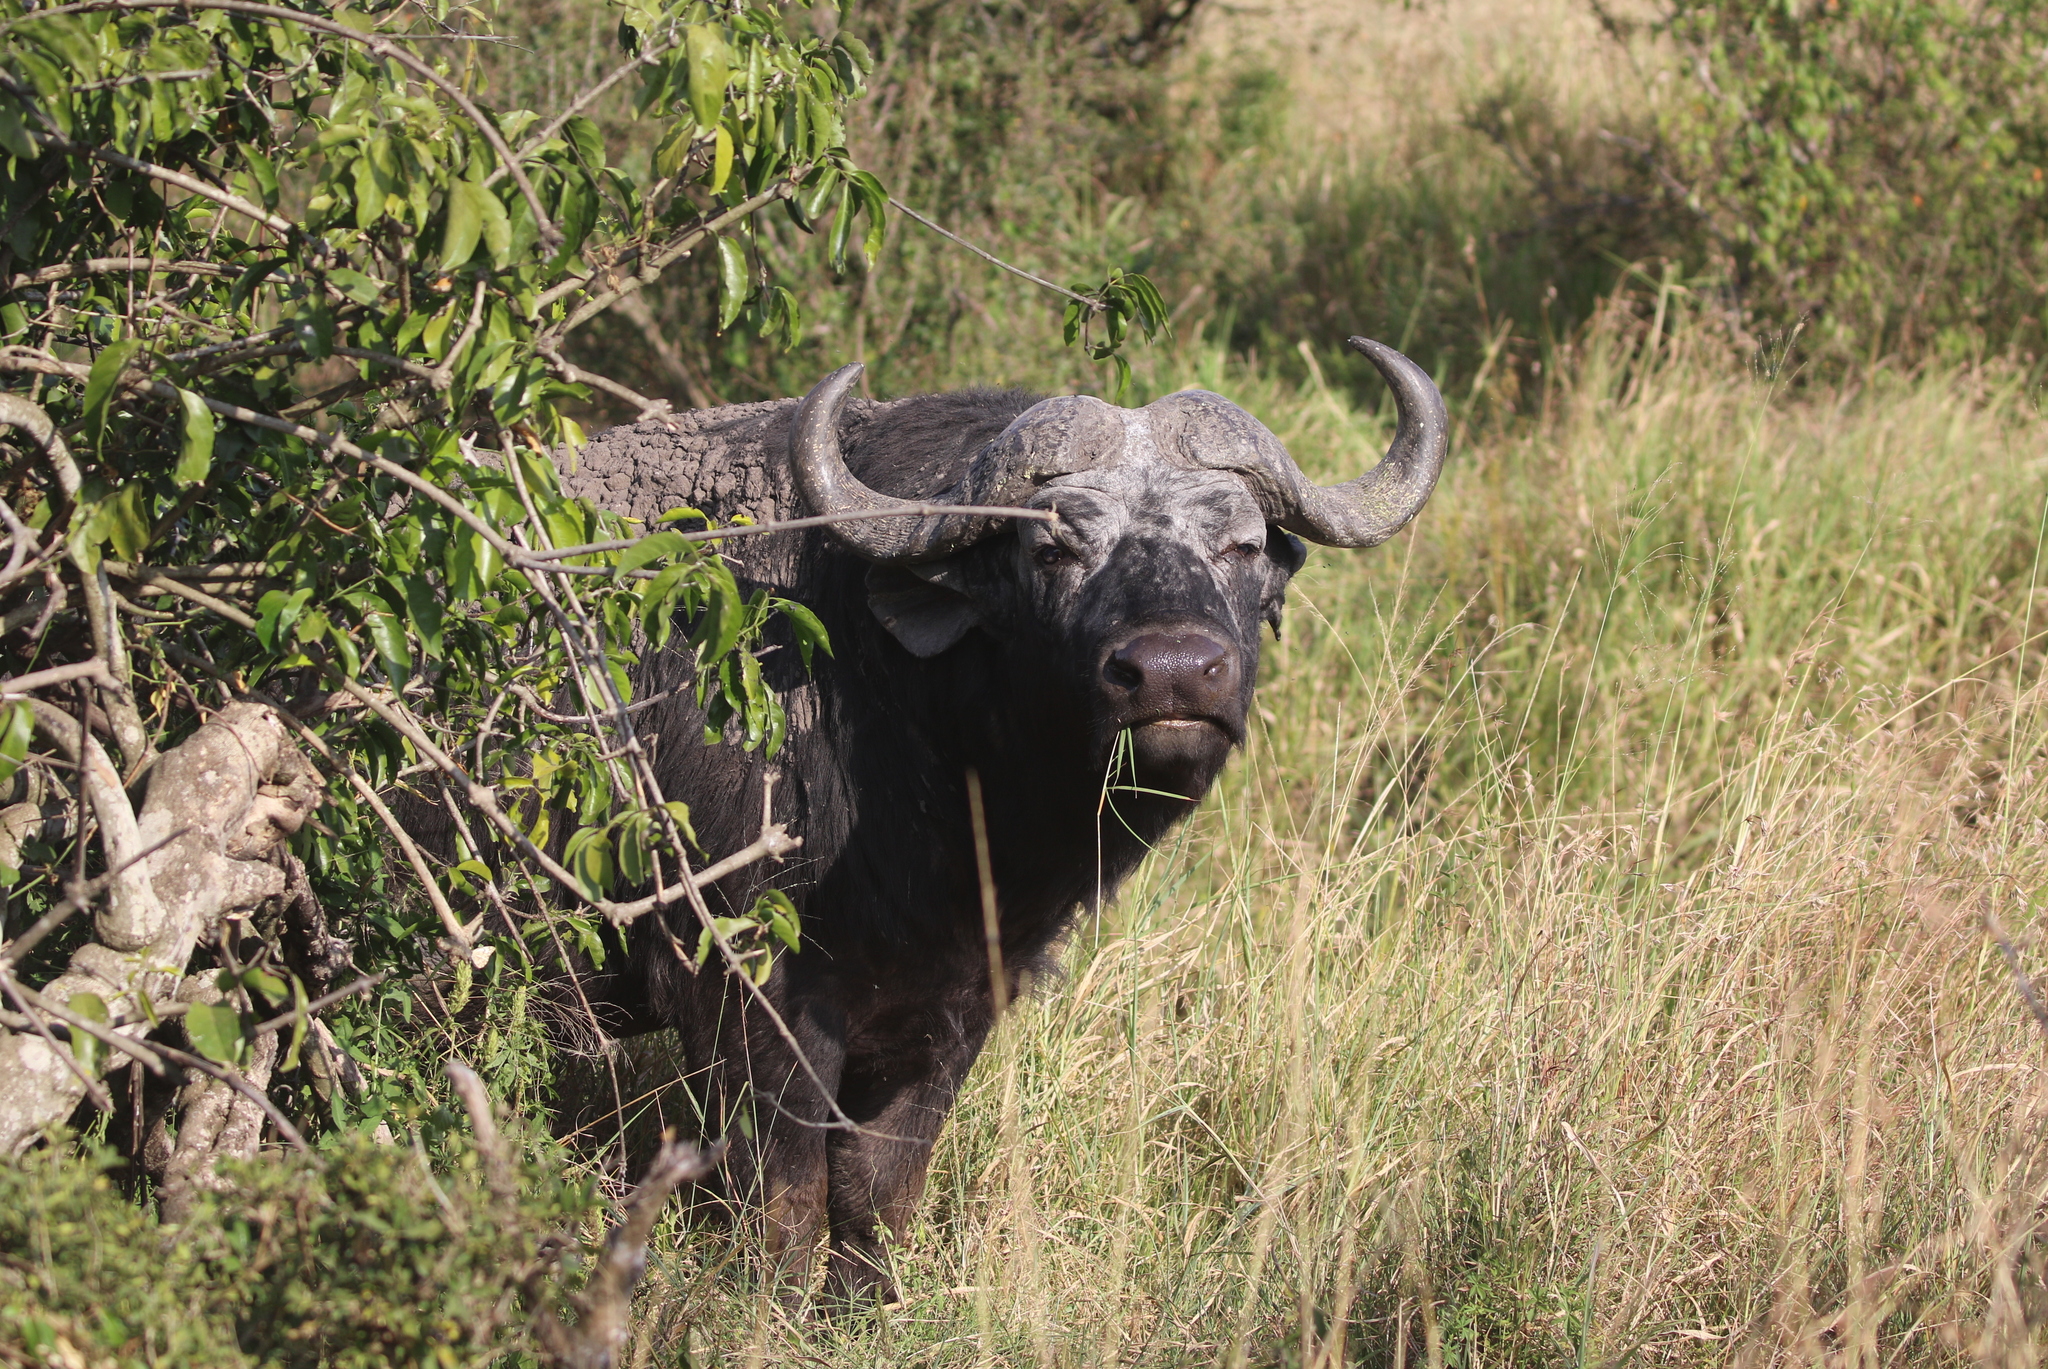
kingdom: Animalia
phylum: Chordata
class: Mammalia
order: Artiodactyla
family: Bovidae
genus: Syncerus
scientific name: Syncerus caffer
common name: African buffalo
